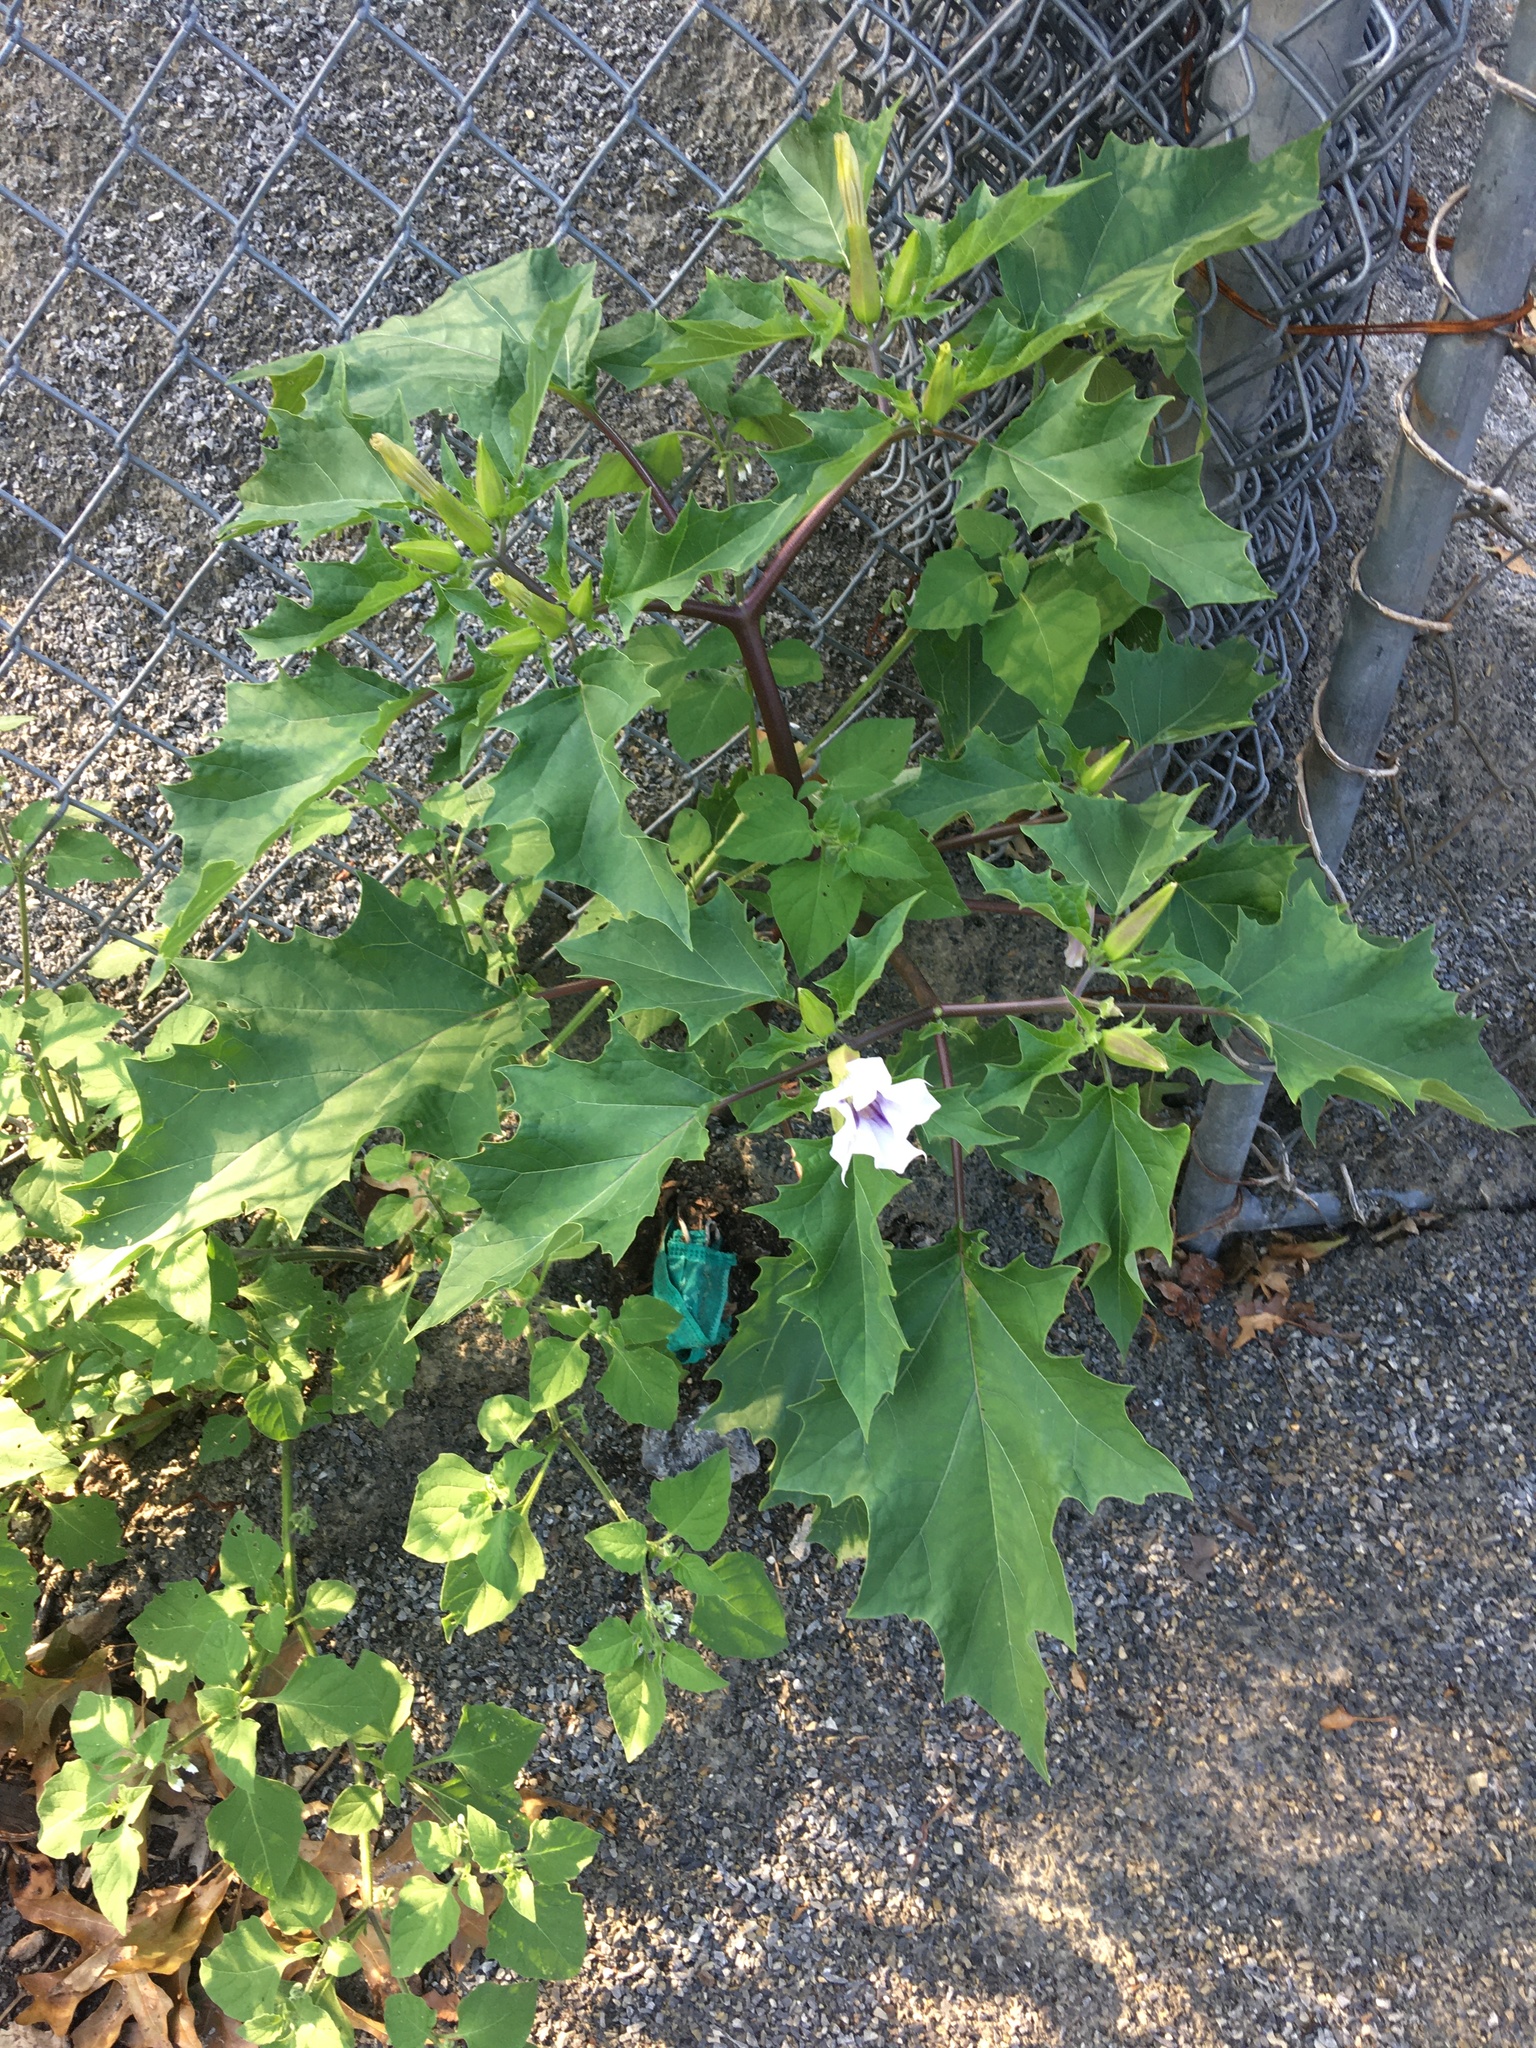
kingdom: Plantae
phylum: Tracheophyta
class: Magnoliopsida
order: Solanales
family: Solanaceae
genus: Datura
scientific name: Datura stramonium
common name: Thorn-apple
